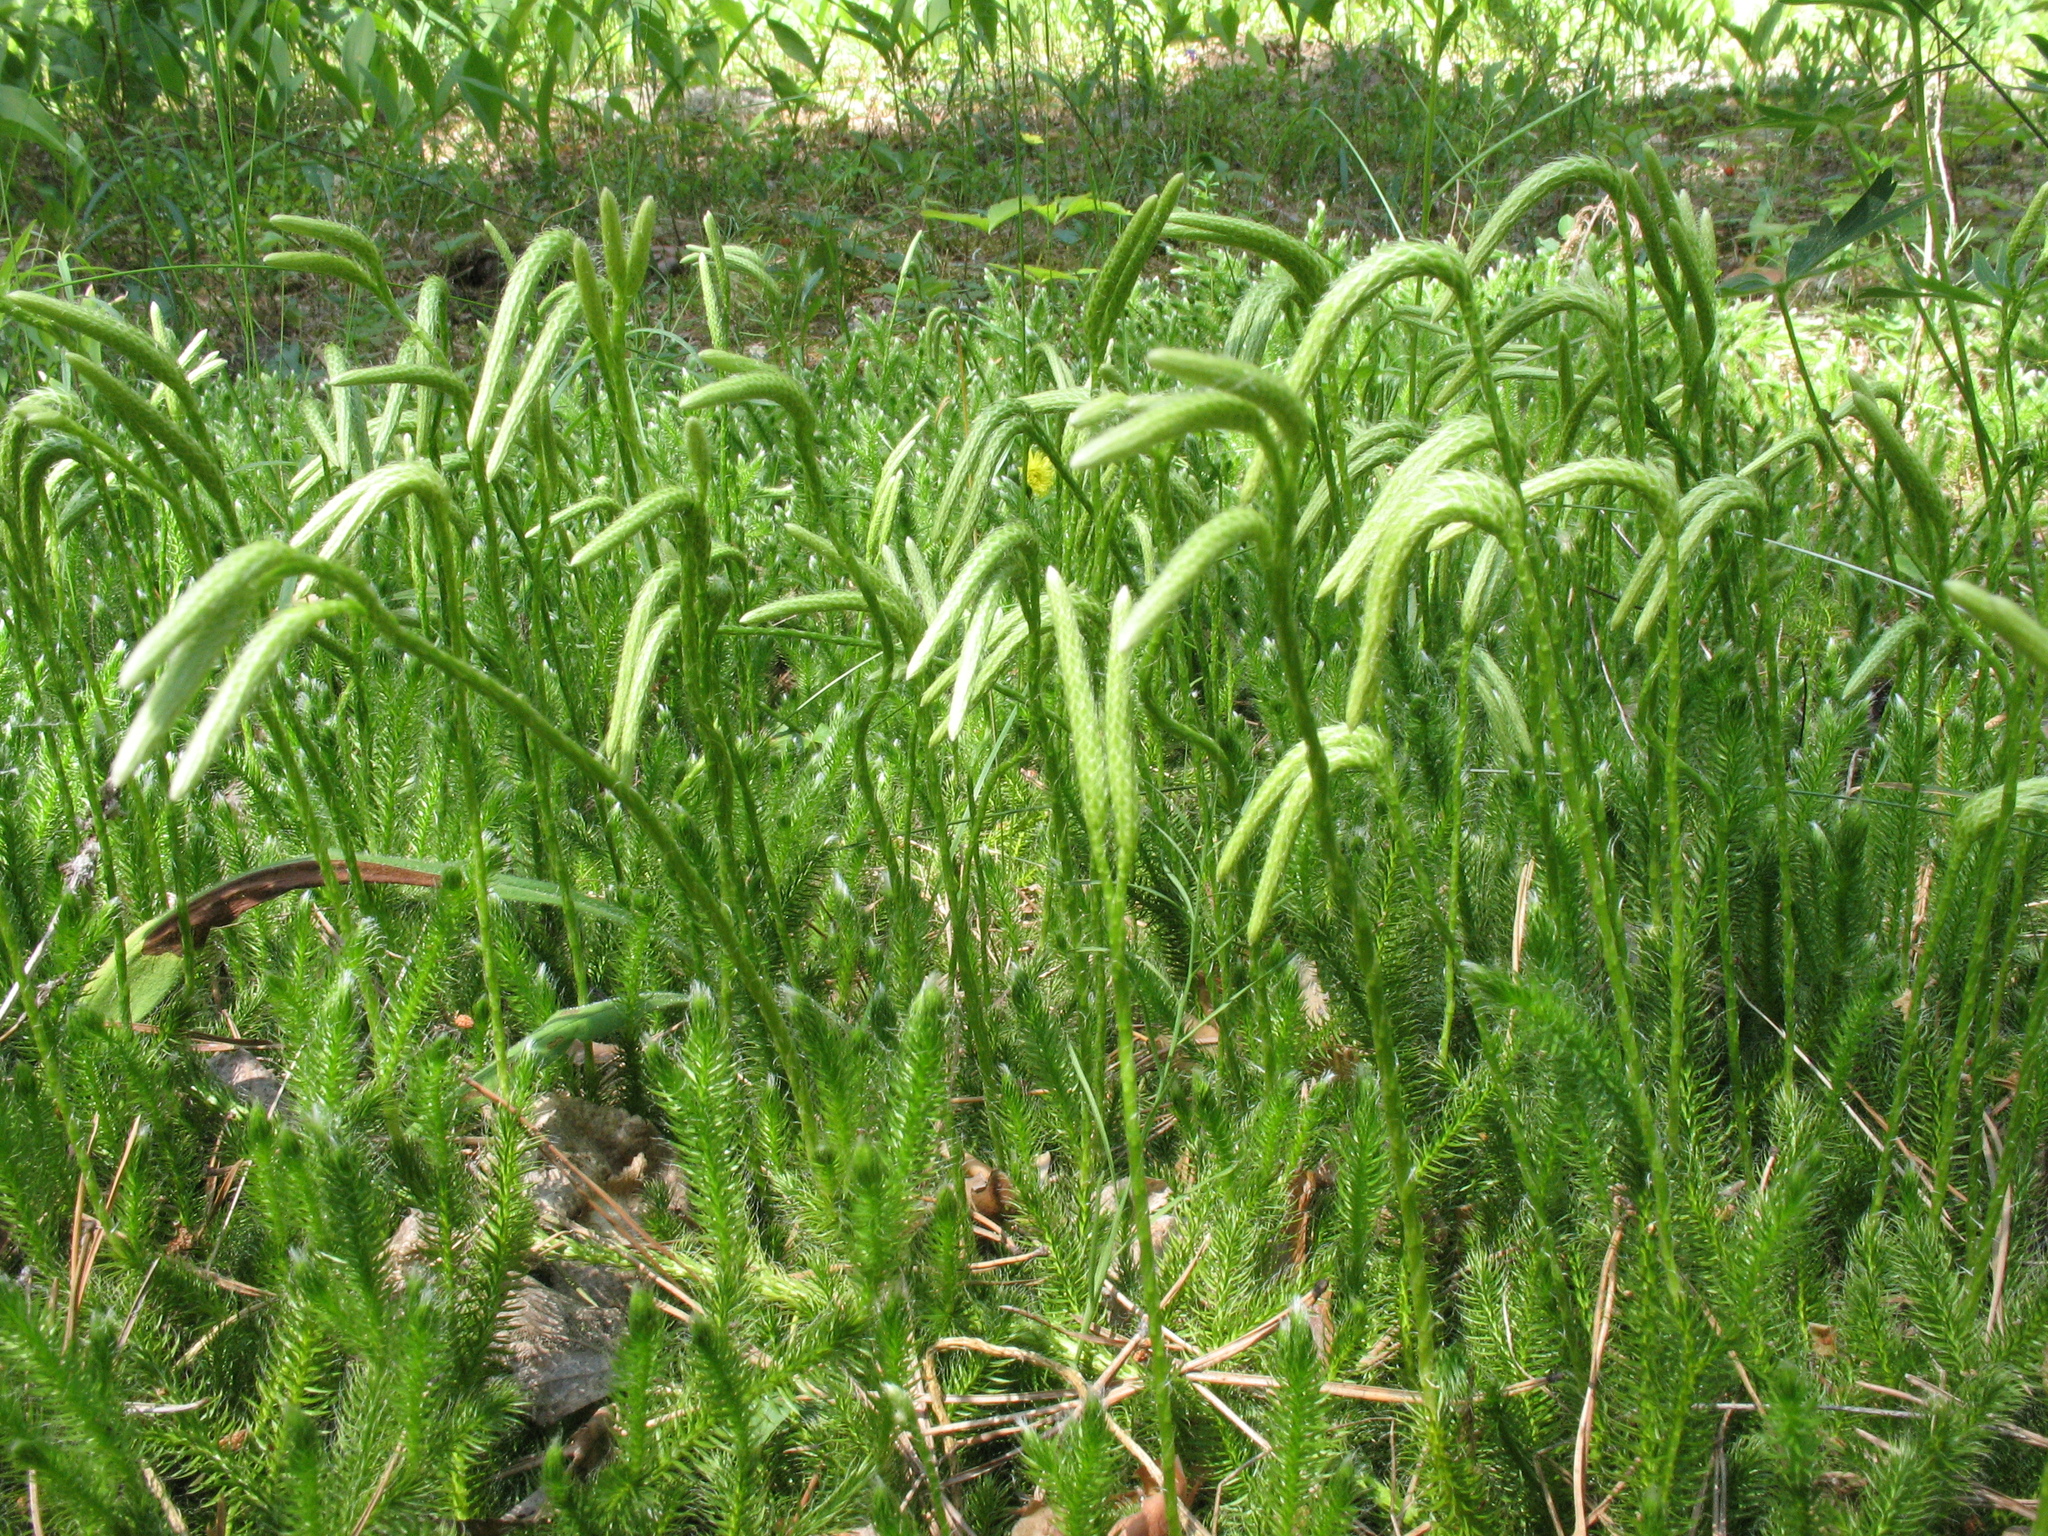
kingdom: Plantae
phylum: Tracheophyta
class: Lycopodiopsida
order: Lycopodiales
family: Lycopodiaceae
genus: Lycopodium
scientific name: Lycopodium clavatum
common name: Stag's-horn clubmoss
